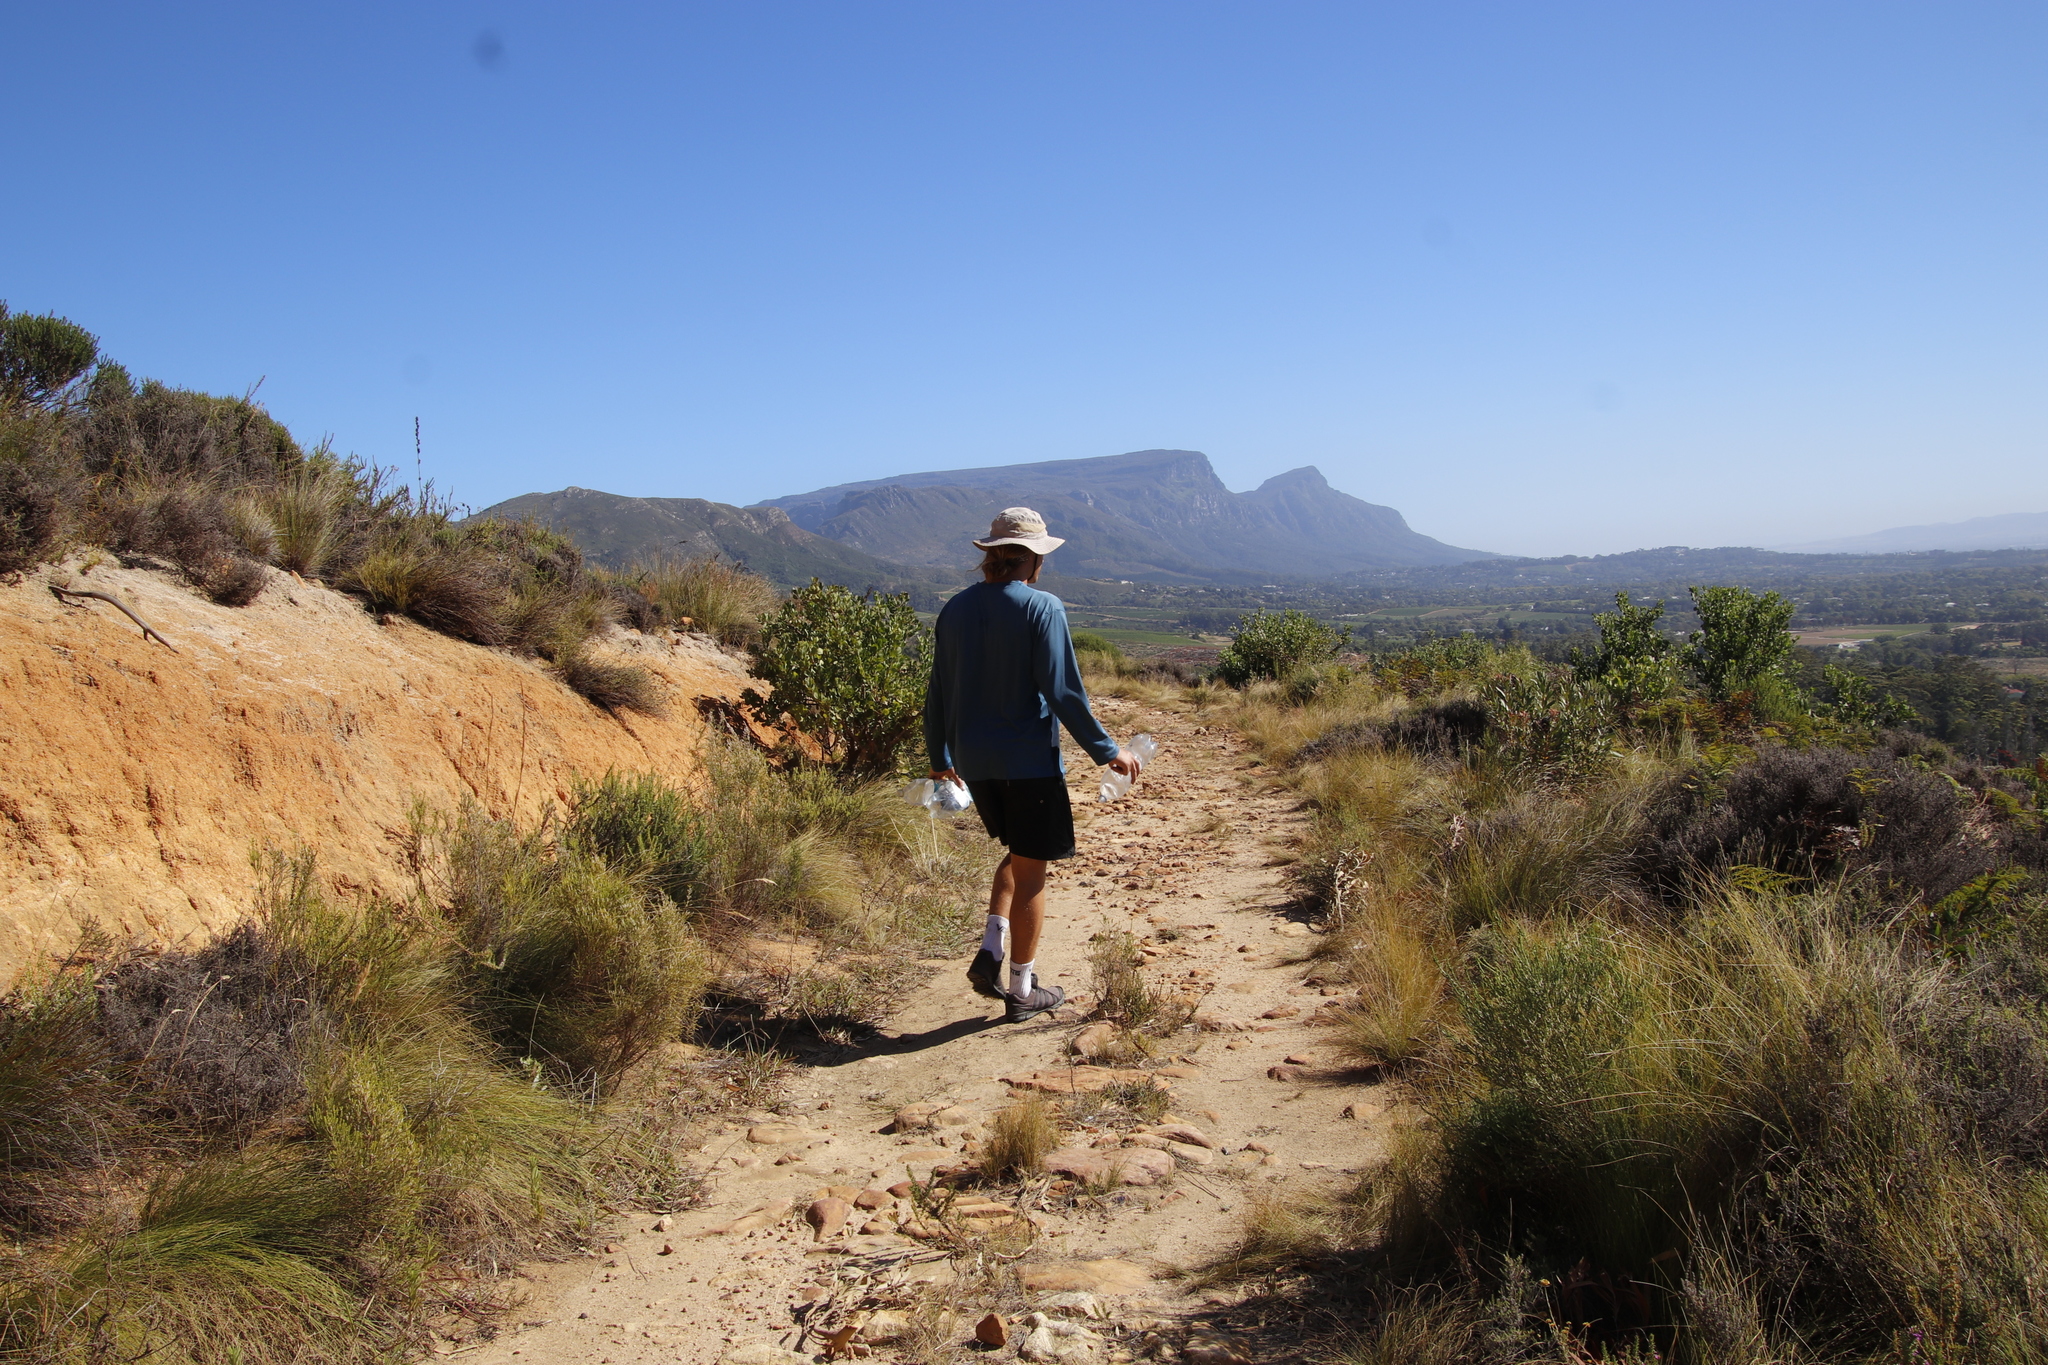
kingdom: Plantae
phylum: Tracheophyta
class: Magnoliopsida
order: Proteales
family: Proteaceae
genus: Protea
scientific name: Protea lepidocarpodendron
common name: Black-bearded protea
